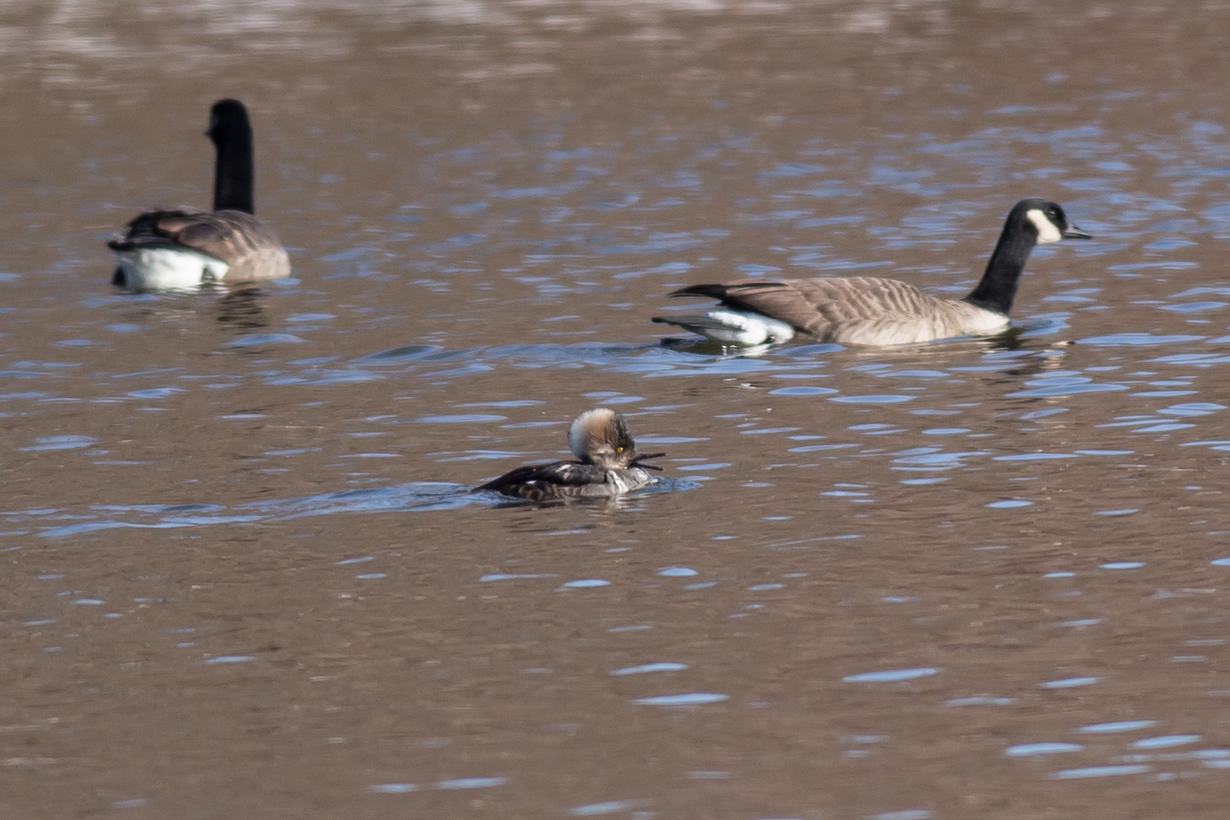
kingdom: Animalia
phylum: Chordata
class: Aves
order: Anseriformes
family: Anatidae
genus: Lophodytes
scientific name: Lophodytes cucullatus
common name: Hooded merganser
